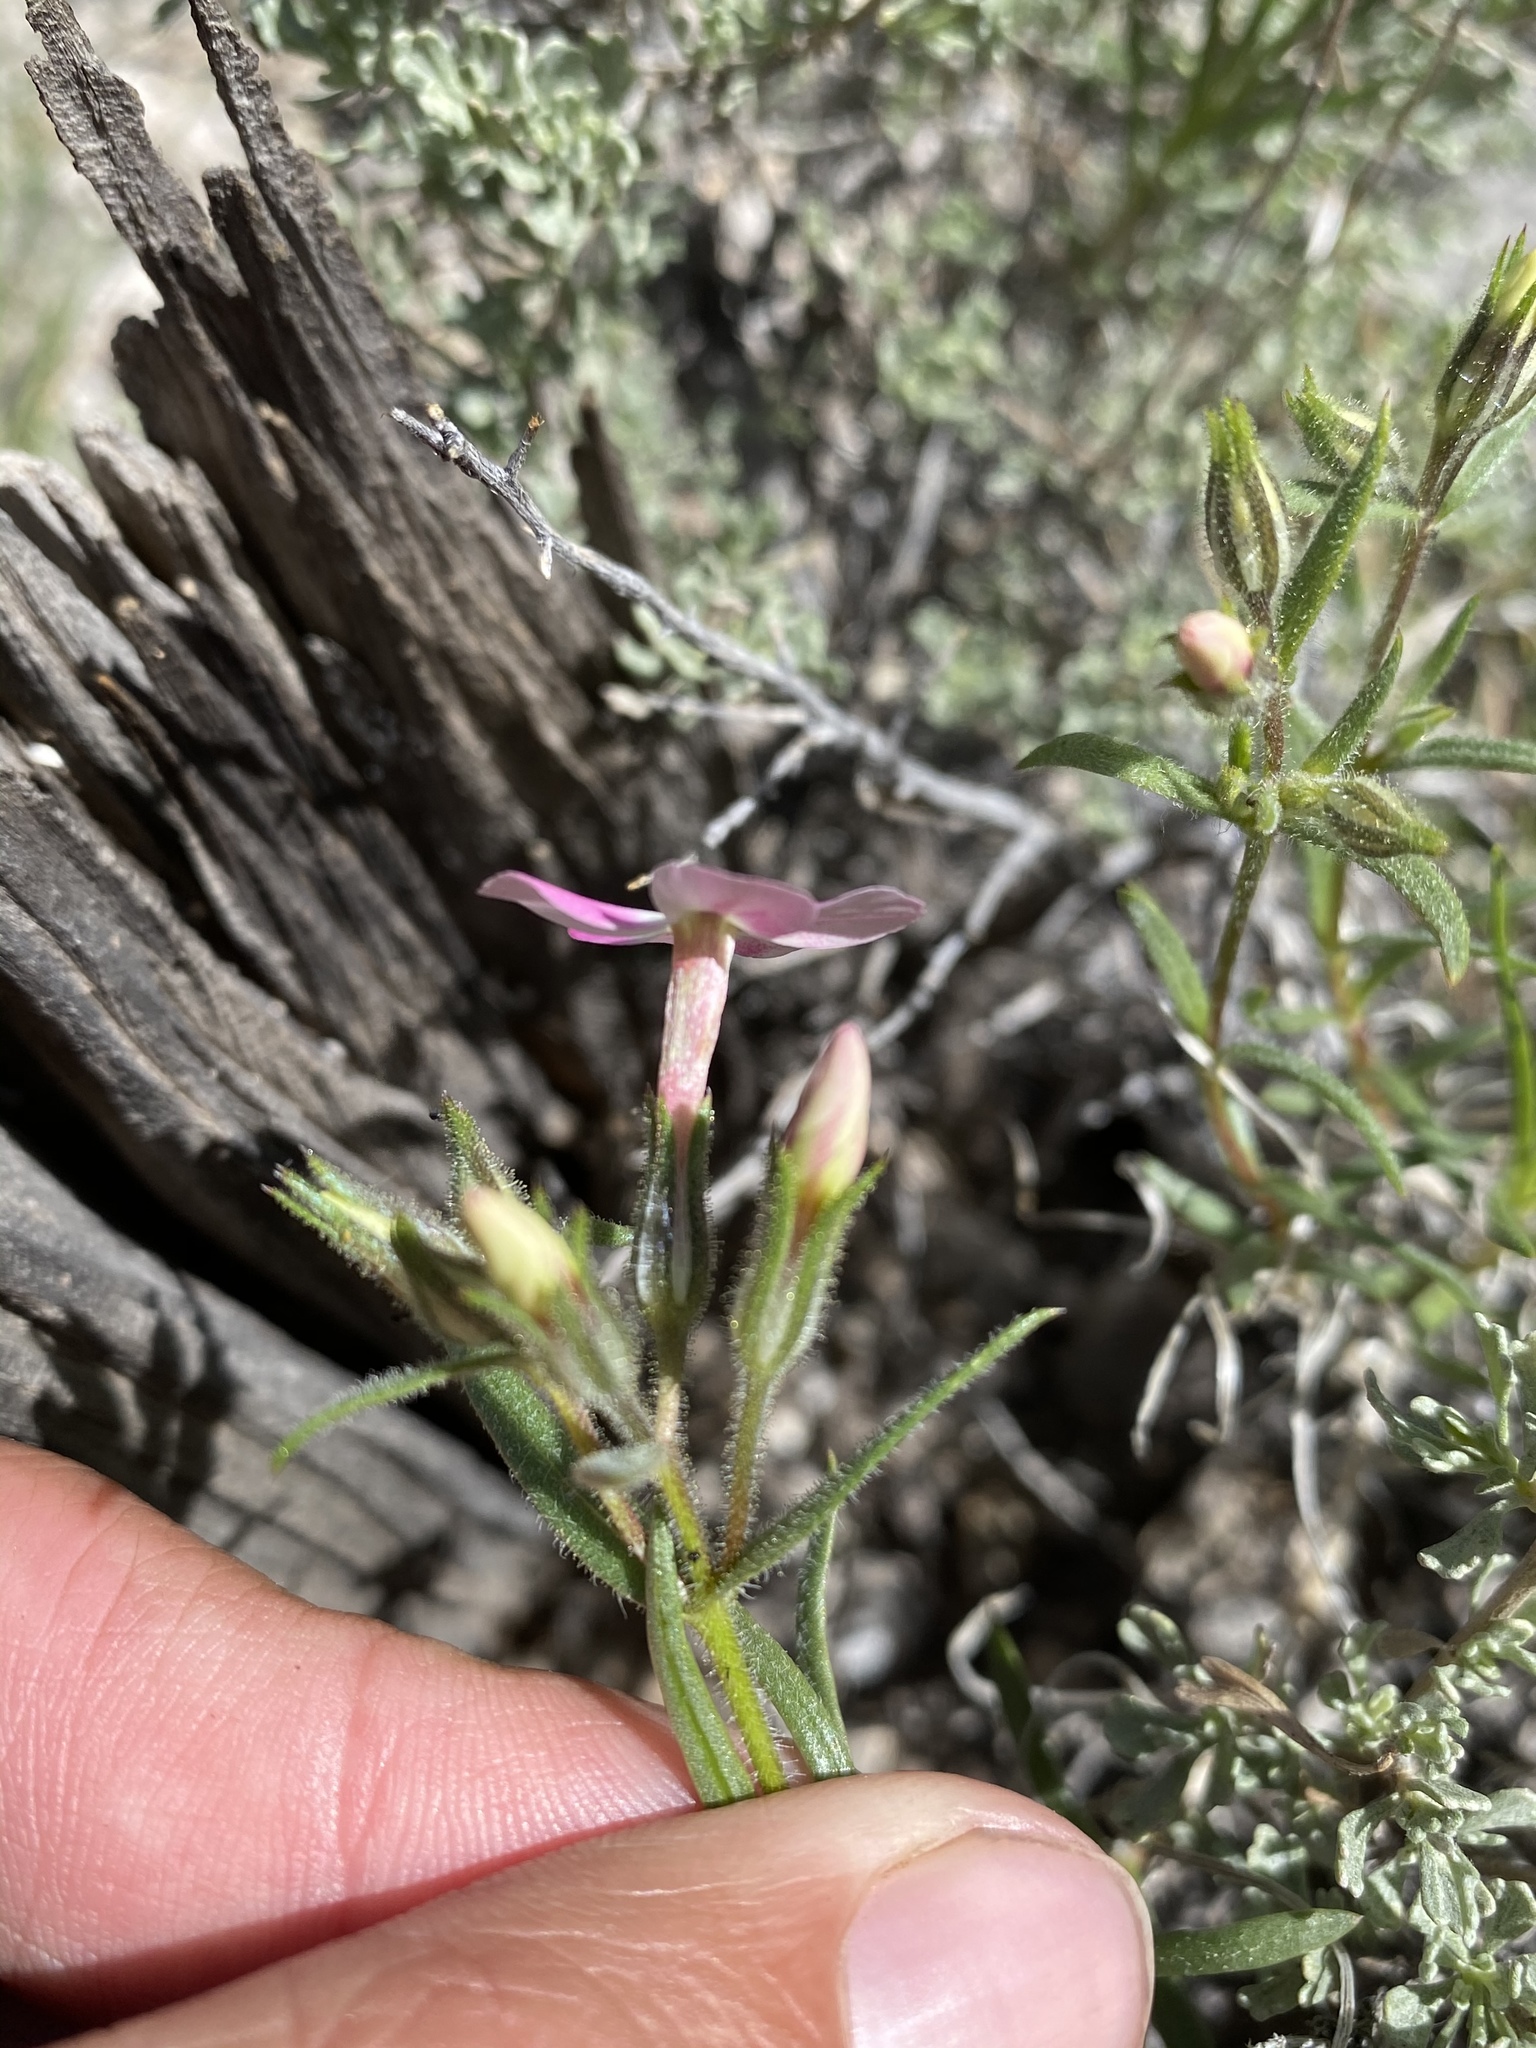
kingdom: Plantae
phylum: Tracheophyta
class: Magnoliopsida
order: Ericales
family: Polemoniaceae
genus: Phlox
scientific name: Phlox longifolia
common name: Longleaf phlox
